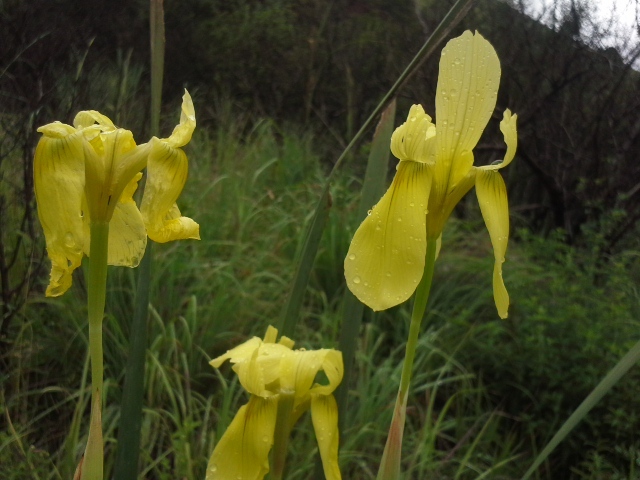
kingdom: Plantae
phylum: Tracheophyta
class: Liliopsida
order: Asparagales
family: Iridaceae
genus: Moraea
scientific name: Moraea spathulata
